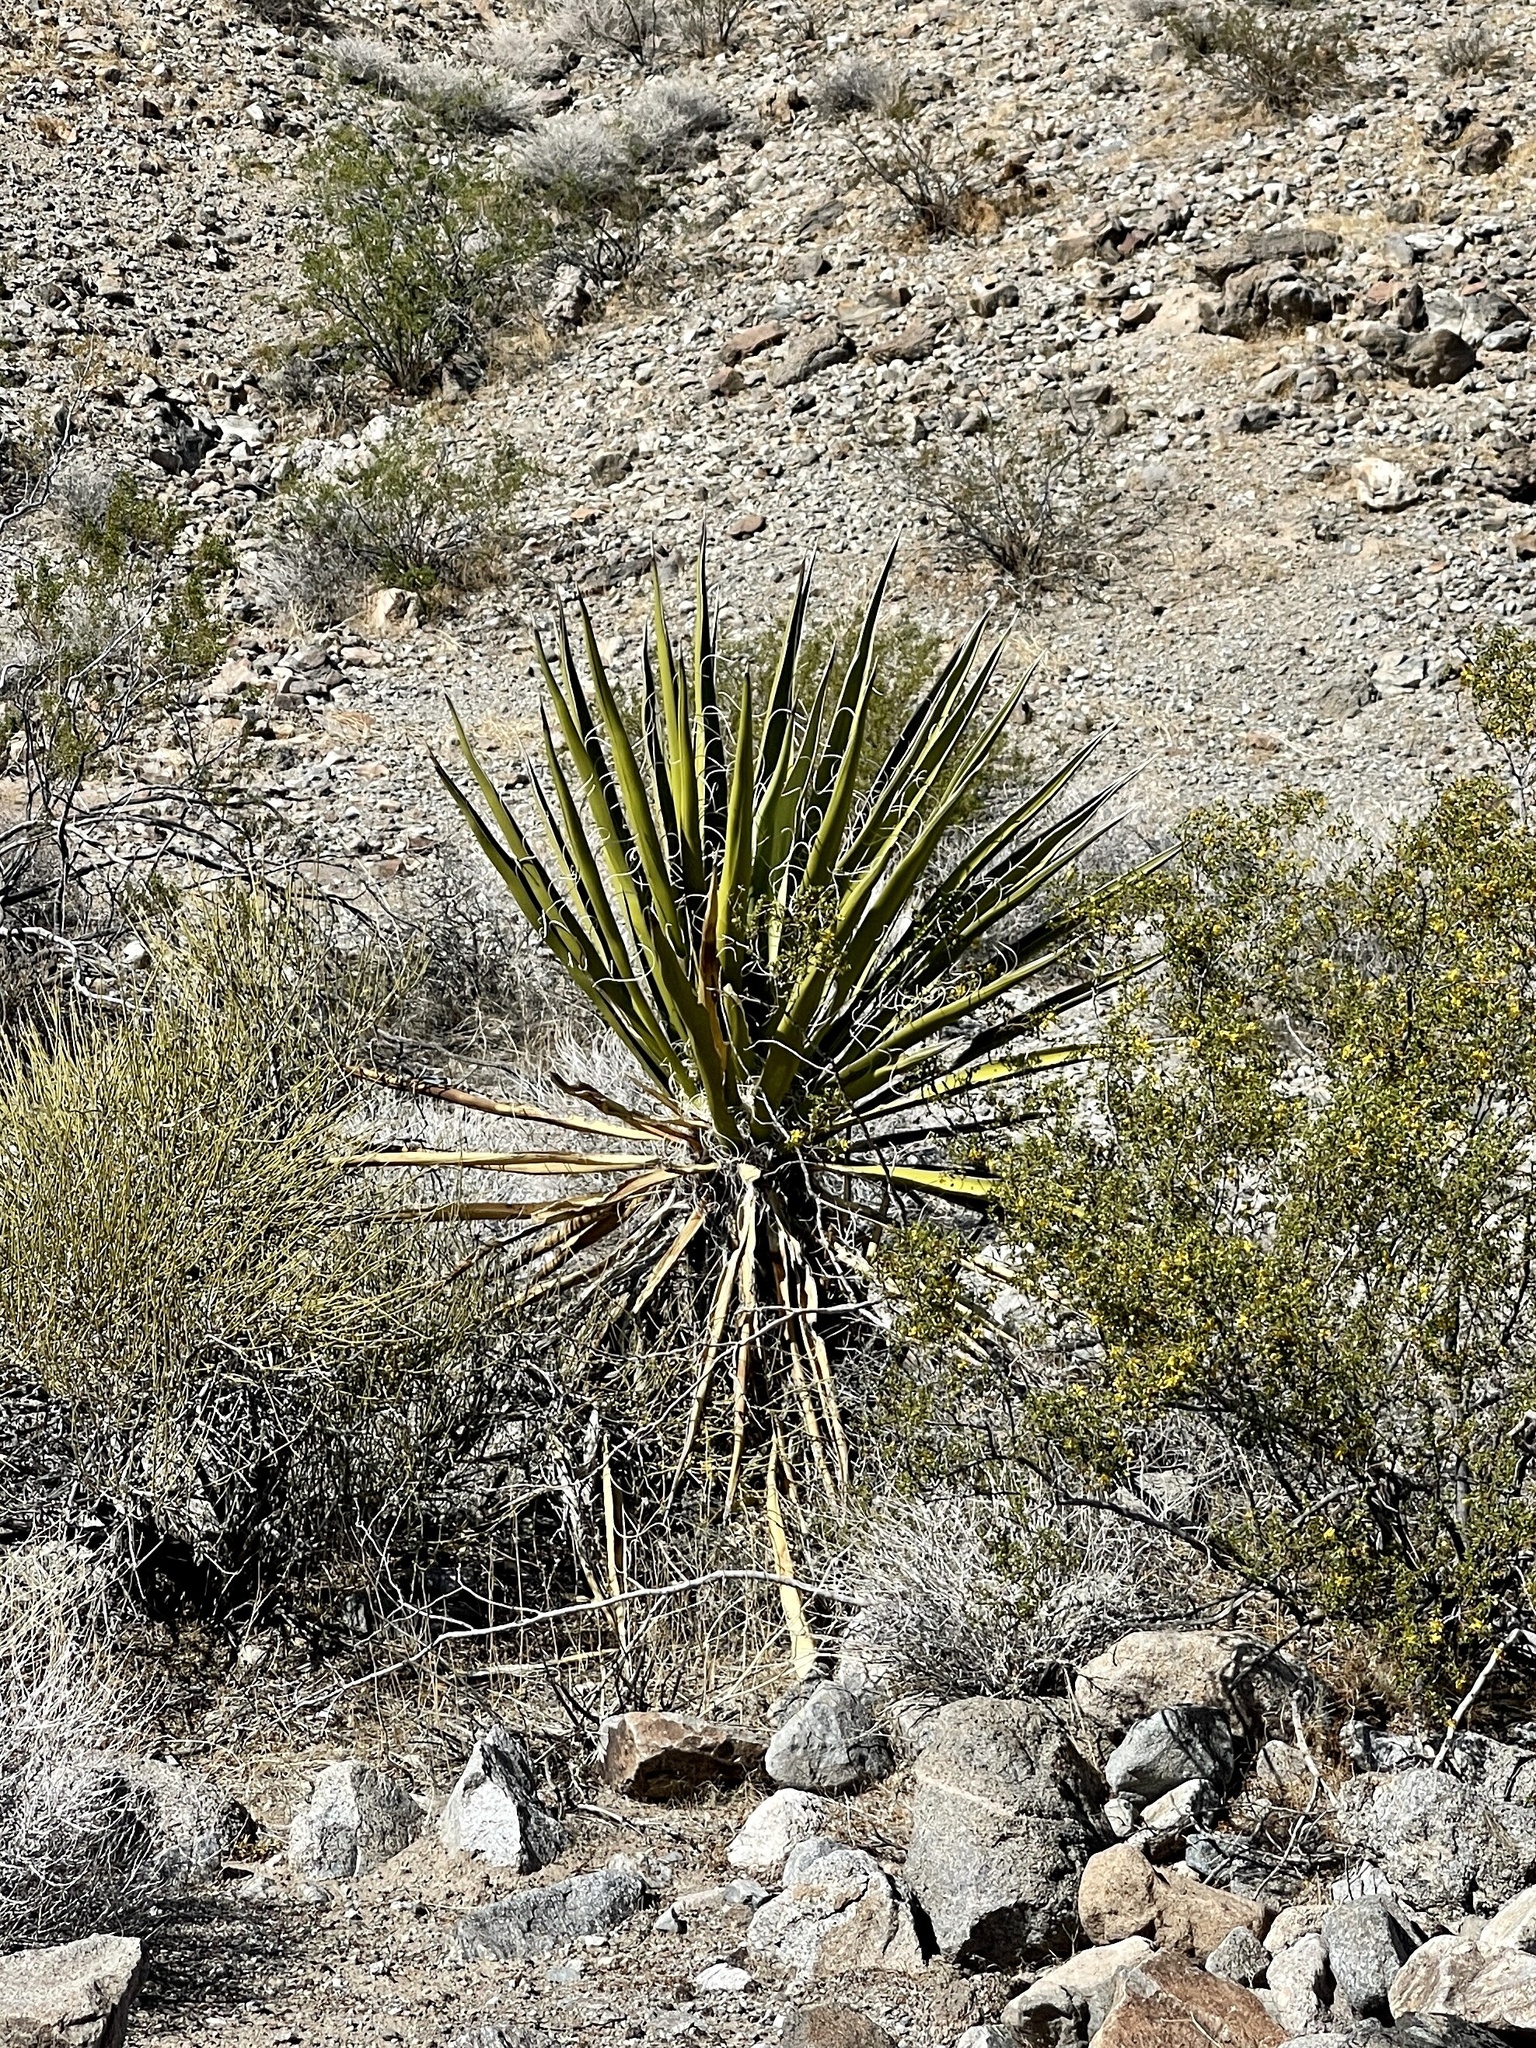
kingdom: Plantae
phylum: Tracheophyta
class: Liliopsida
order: Asparagales
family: Asparagaceae
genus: Yucca
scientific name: Yucca schidigera
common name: Mojave yucca
